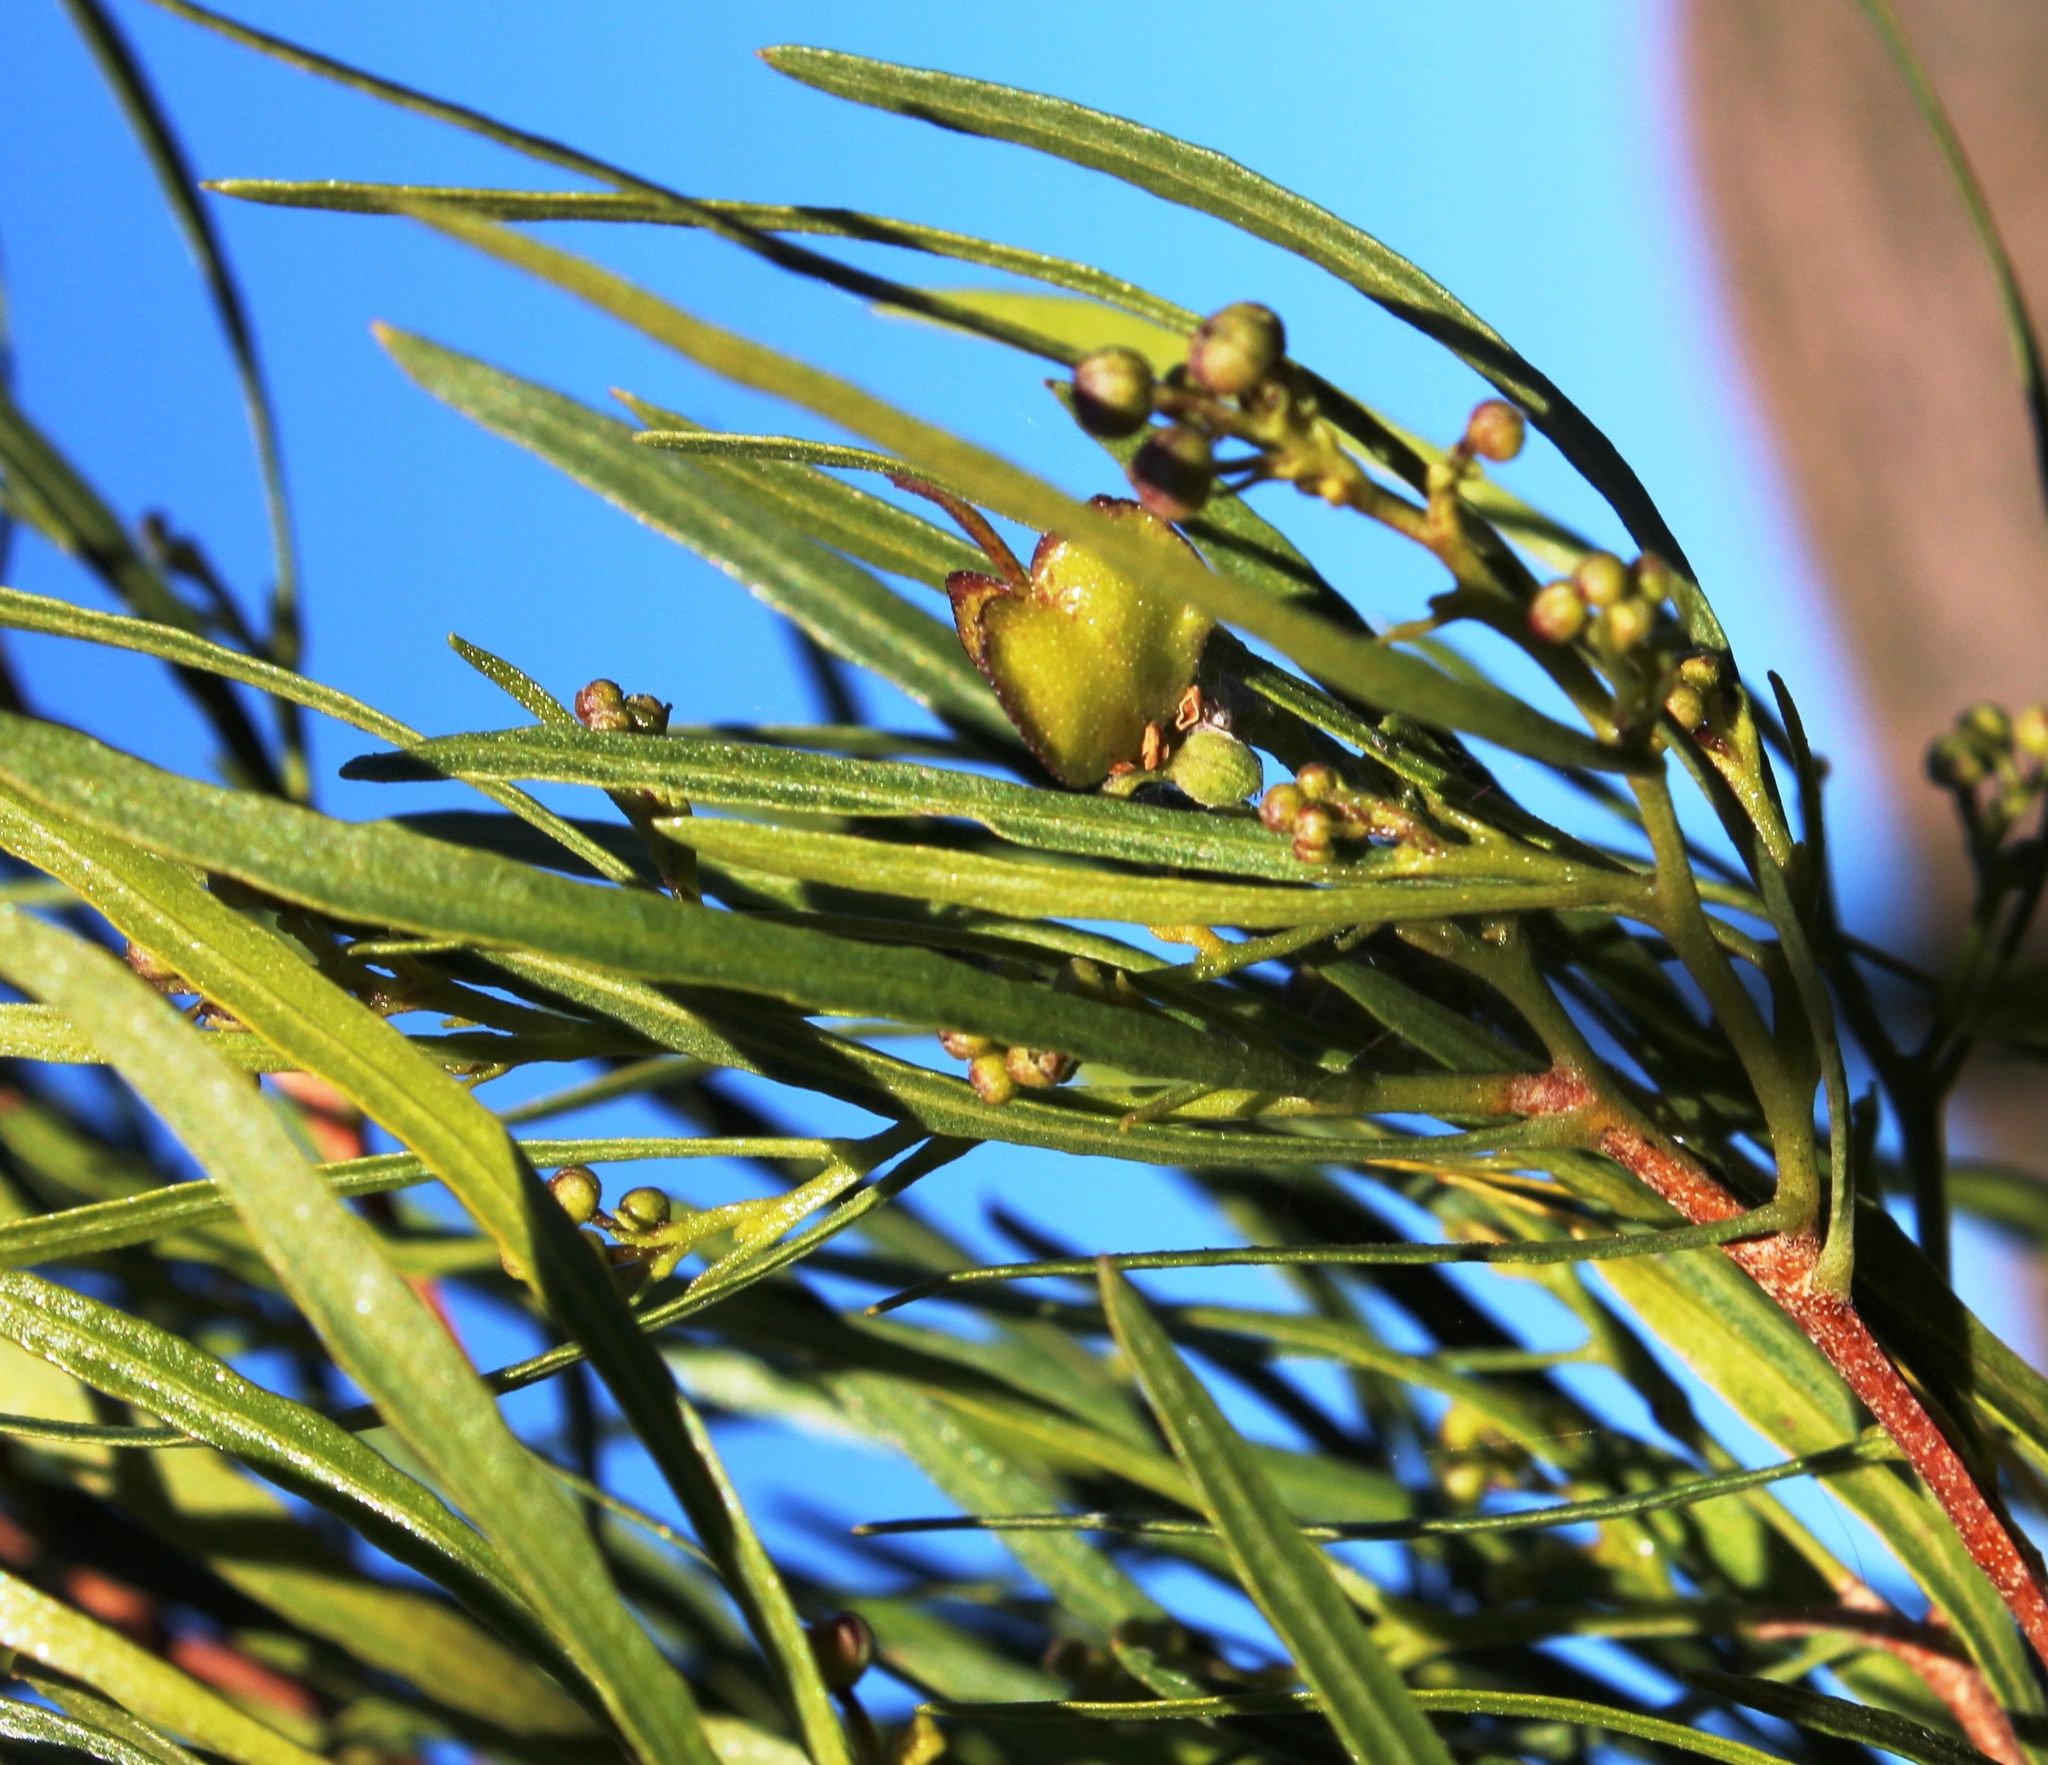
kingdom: Plantae
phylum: Tracheophyta
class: Magnoliopsida
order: Sapindales
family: Sapindaceae
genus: Dodonaea
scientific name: Dodonaea viscosa
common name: Hopbush
